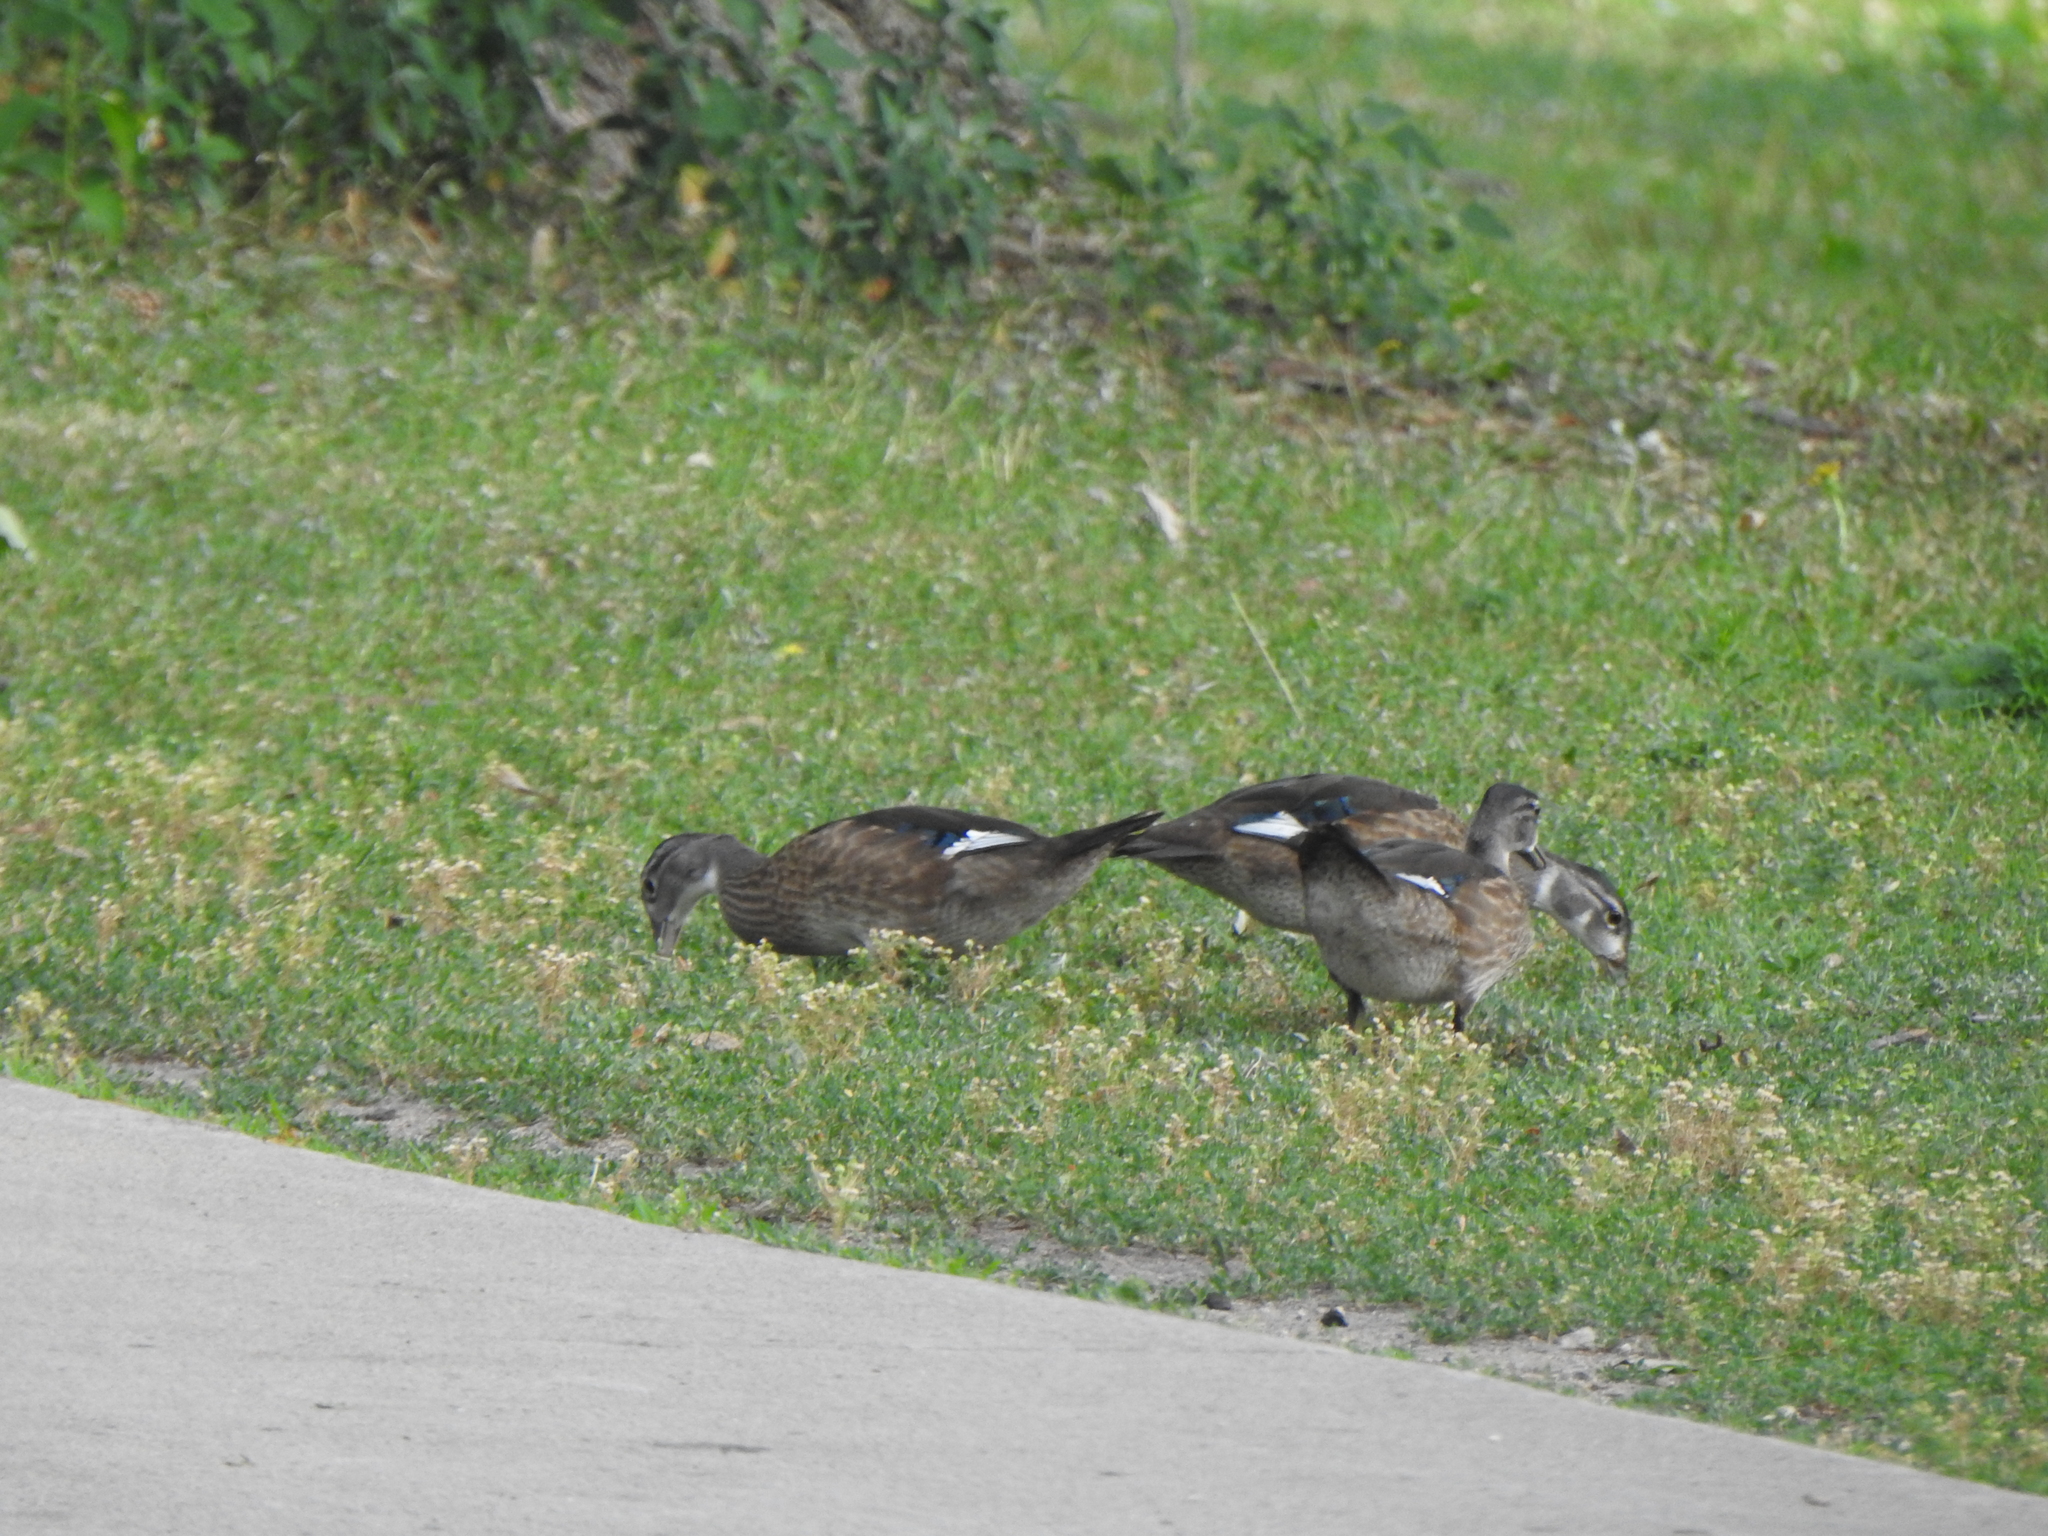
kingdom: Animalia
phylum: Chordata
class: Aves
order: Anseriformes
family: Anatidae
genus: Aix
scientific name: Aix sponsa
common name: Wood duck
